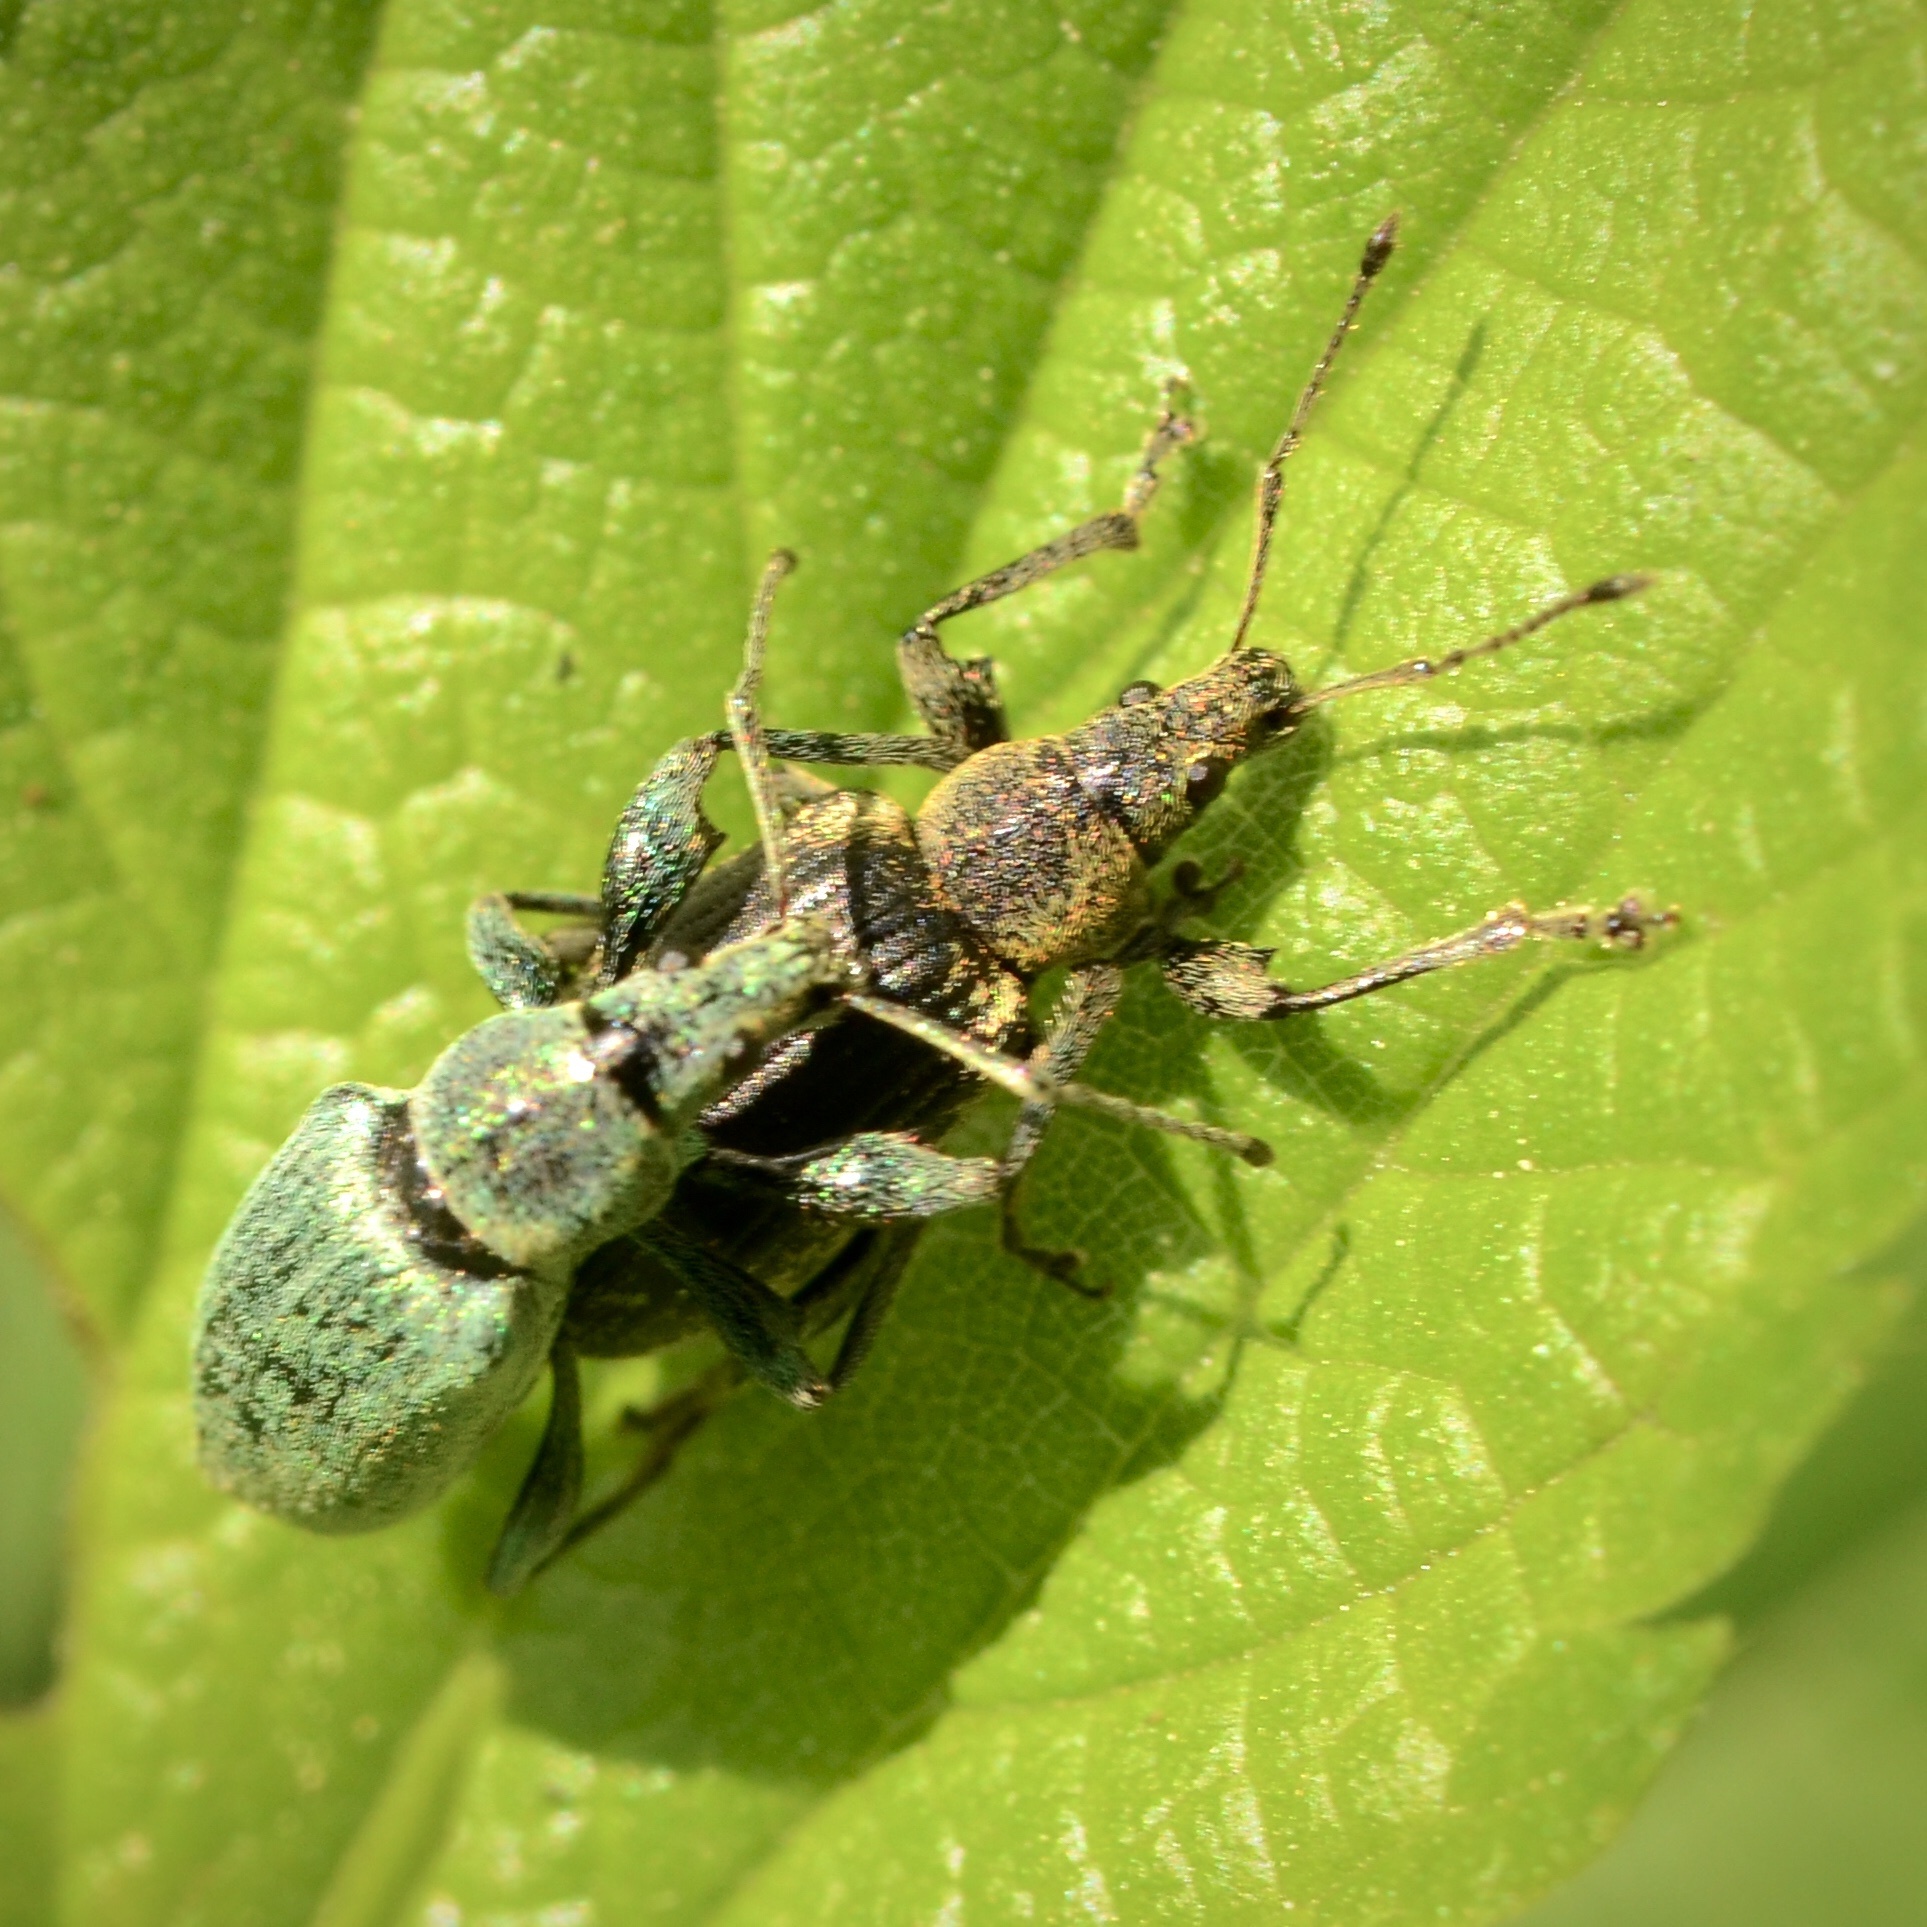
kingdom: Animalia
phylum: Arthropoda
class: Insecta
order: Coleoptera
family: Curculionidae
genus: Phyllobius
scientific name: Phyllobius pomaceus
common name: Green nettle weevil
